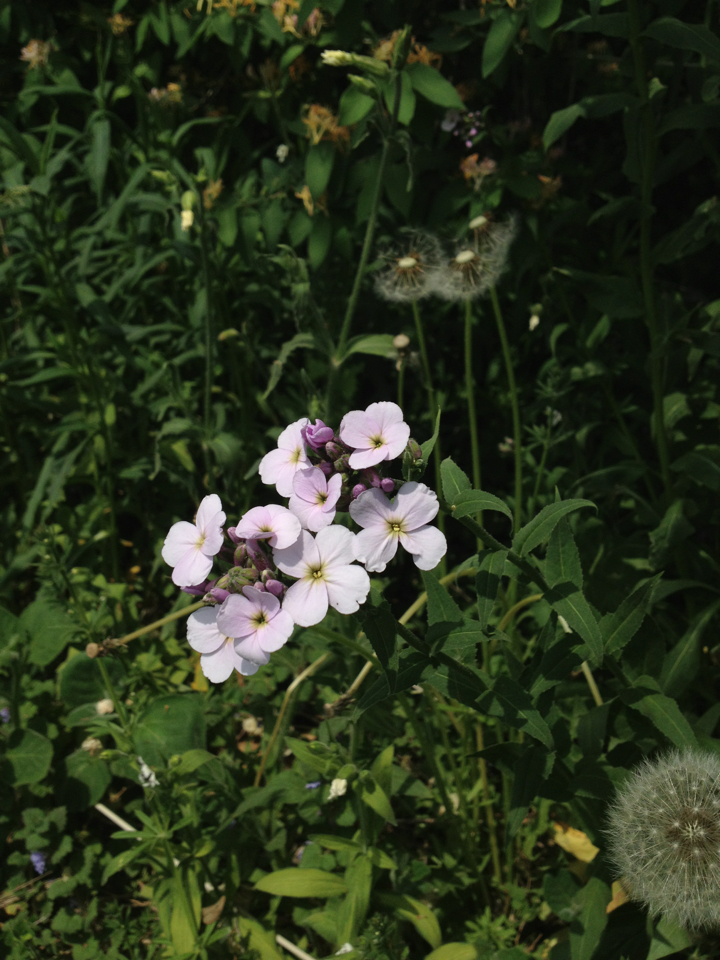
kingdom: Plantae
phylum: Tracheophyta
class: Magnoliopsida
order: Brassicales
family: Brassicaceae
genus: Hesperis
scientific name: Hesperis matronalis
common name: Dame's-violet
